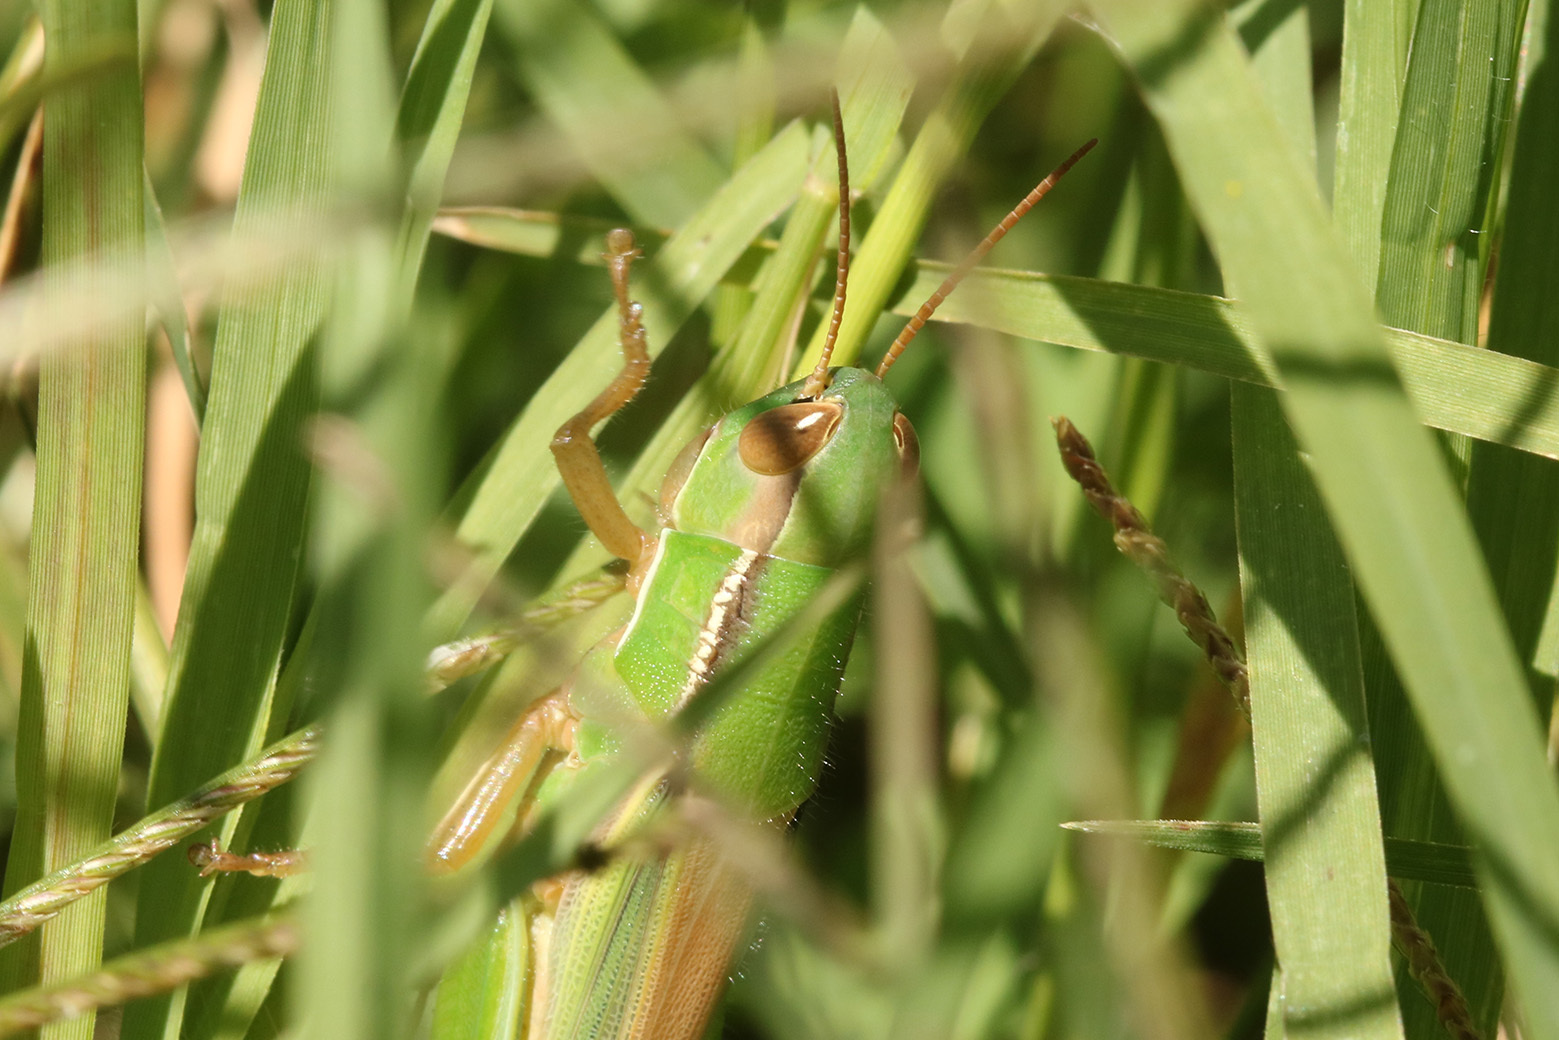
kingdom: Animalia
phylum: Arthropoda
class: Insecta
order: Orthoptera
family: Acrididae
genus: Aleuas
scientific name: Aleuas lineatus
